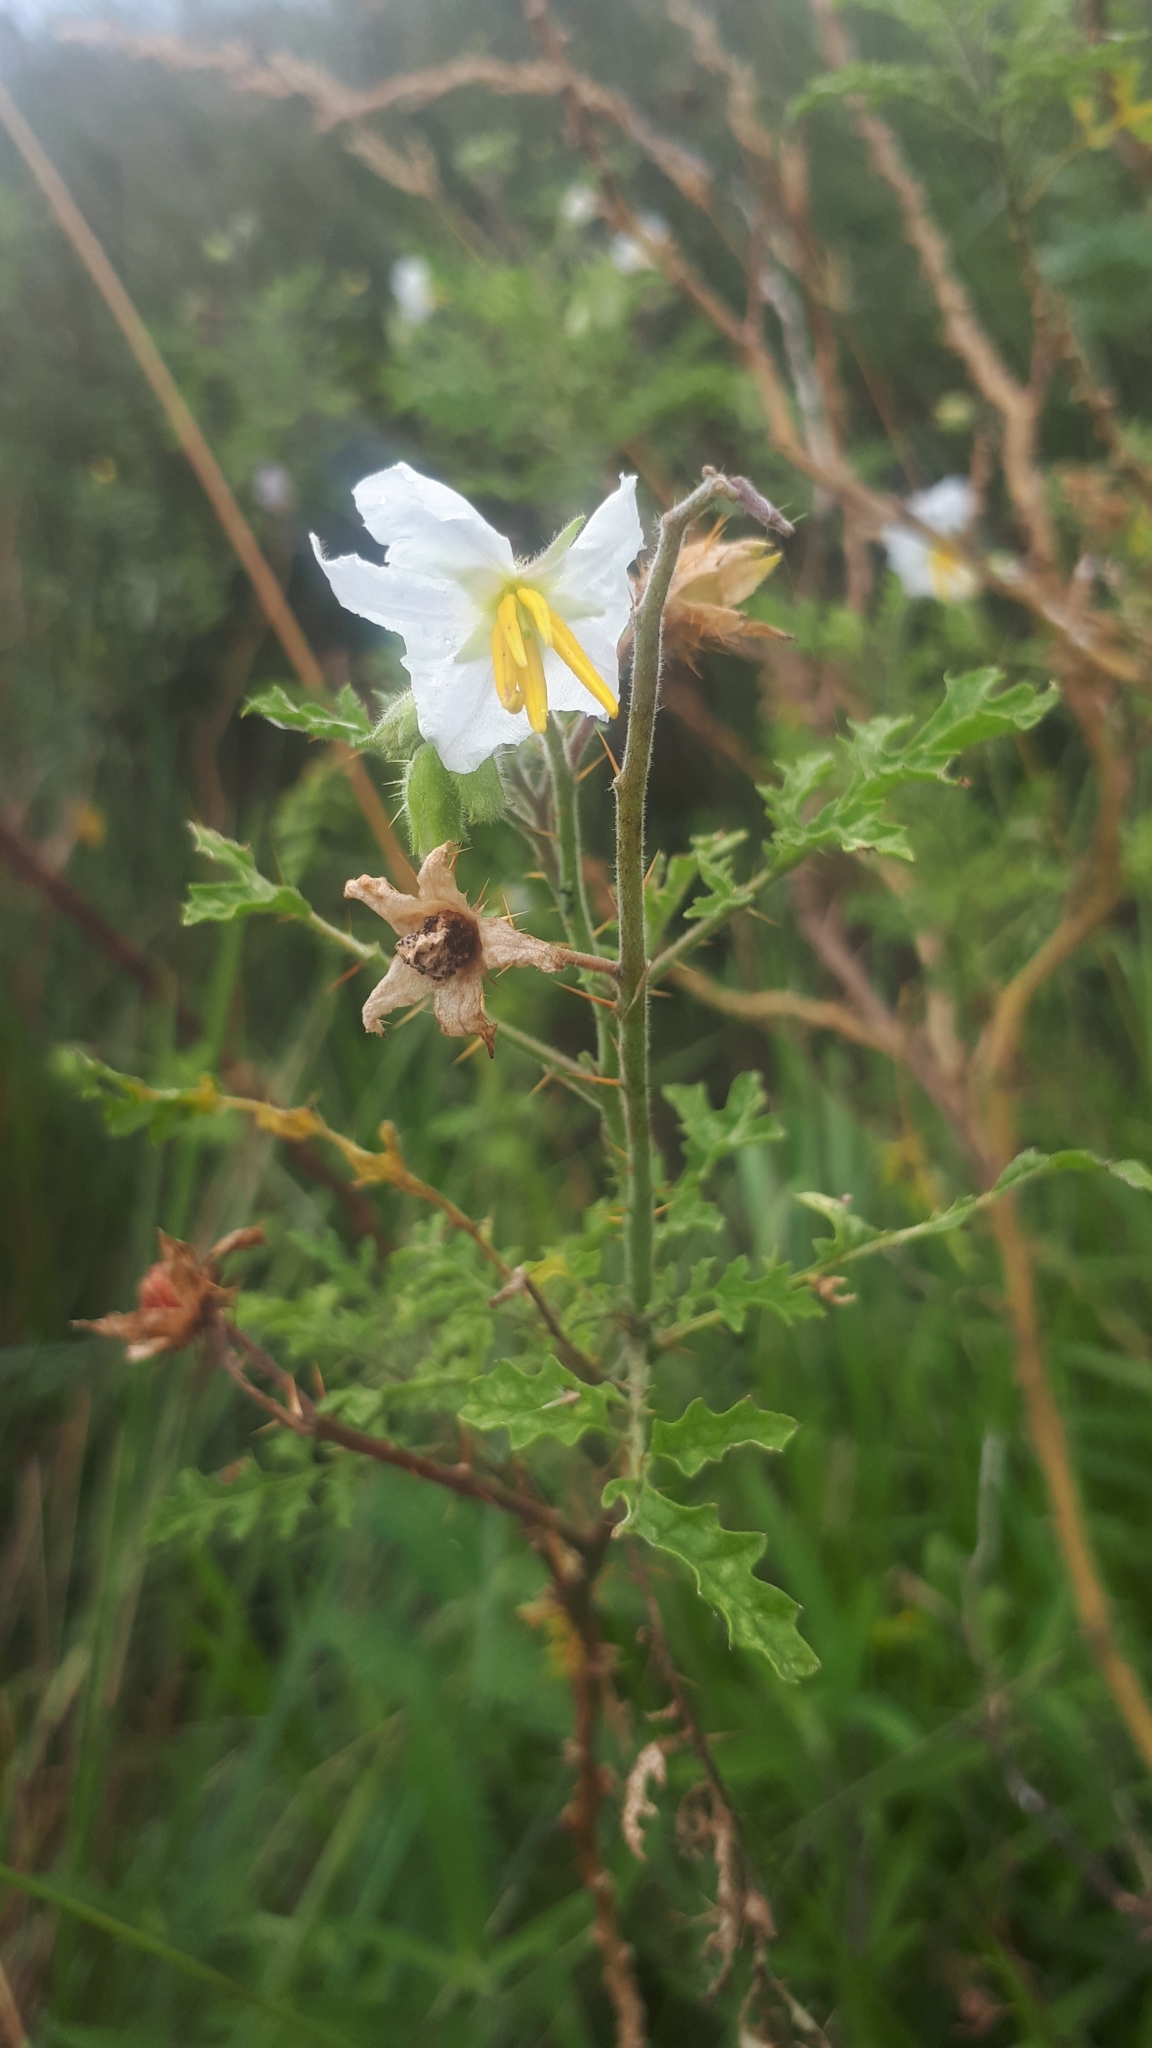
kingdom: Plantae
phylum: Tracheophyta
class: Magnoliopsida
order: Solanales
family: Solanaceae
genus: Solanum
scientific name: Solanum sisymbriifolium
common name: Red buffalo-bur
